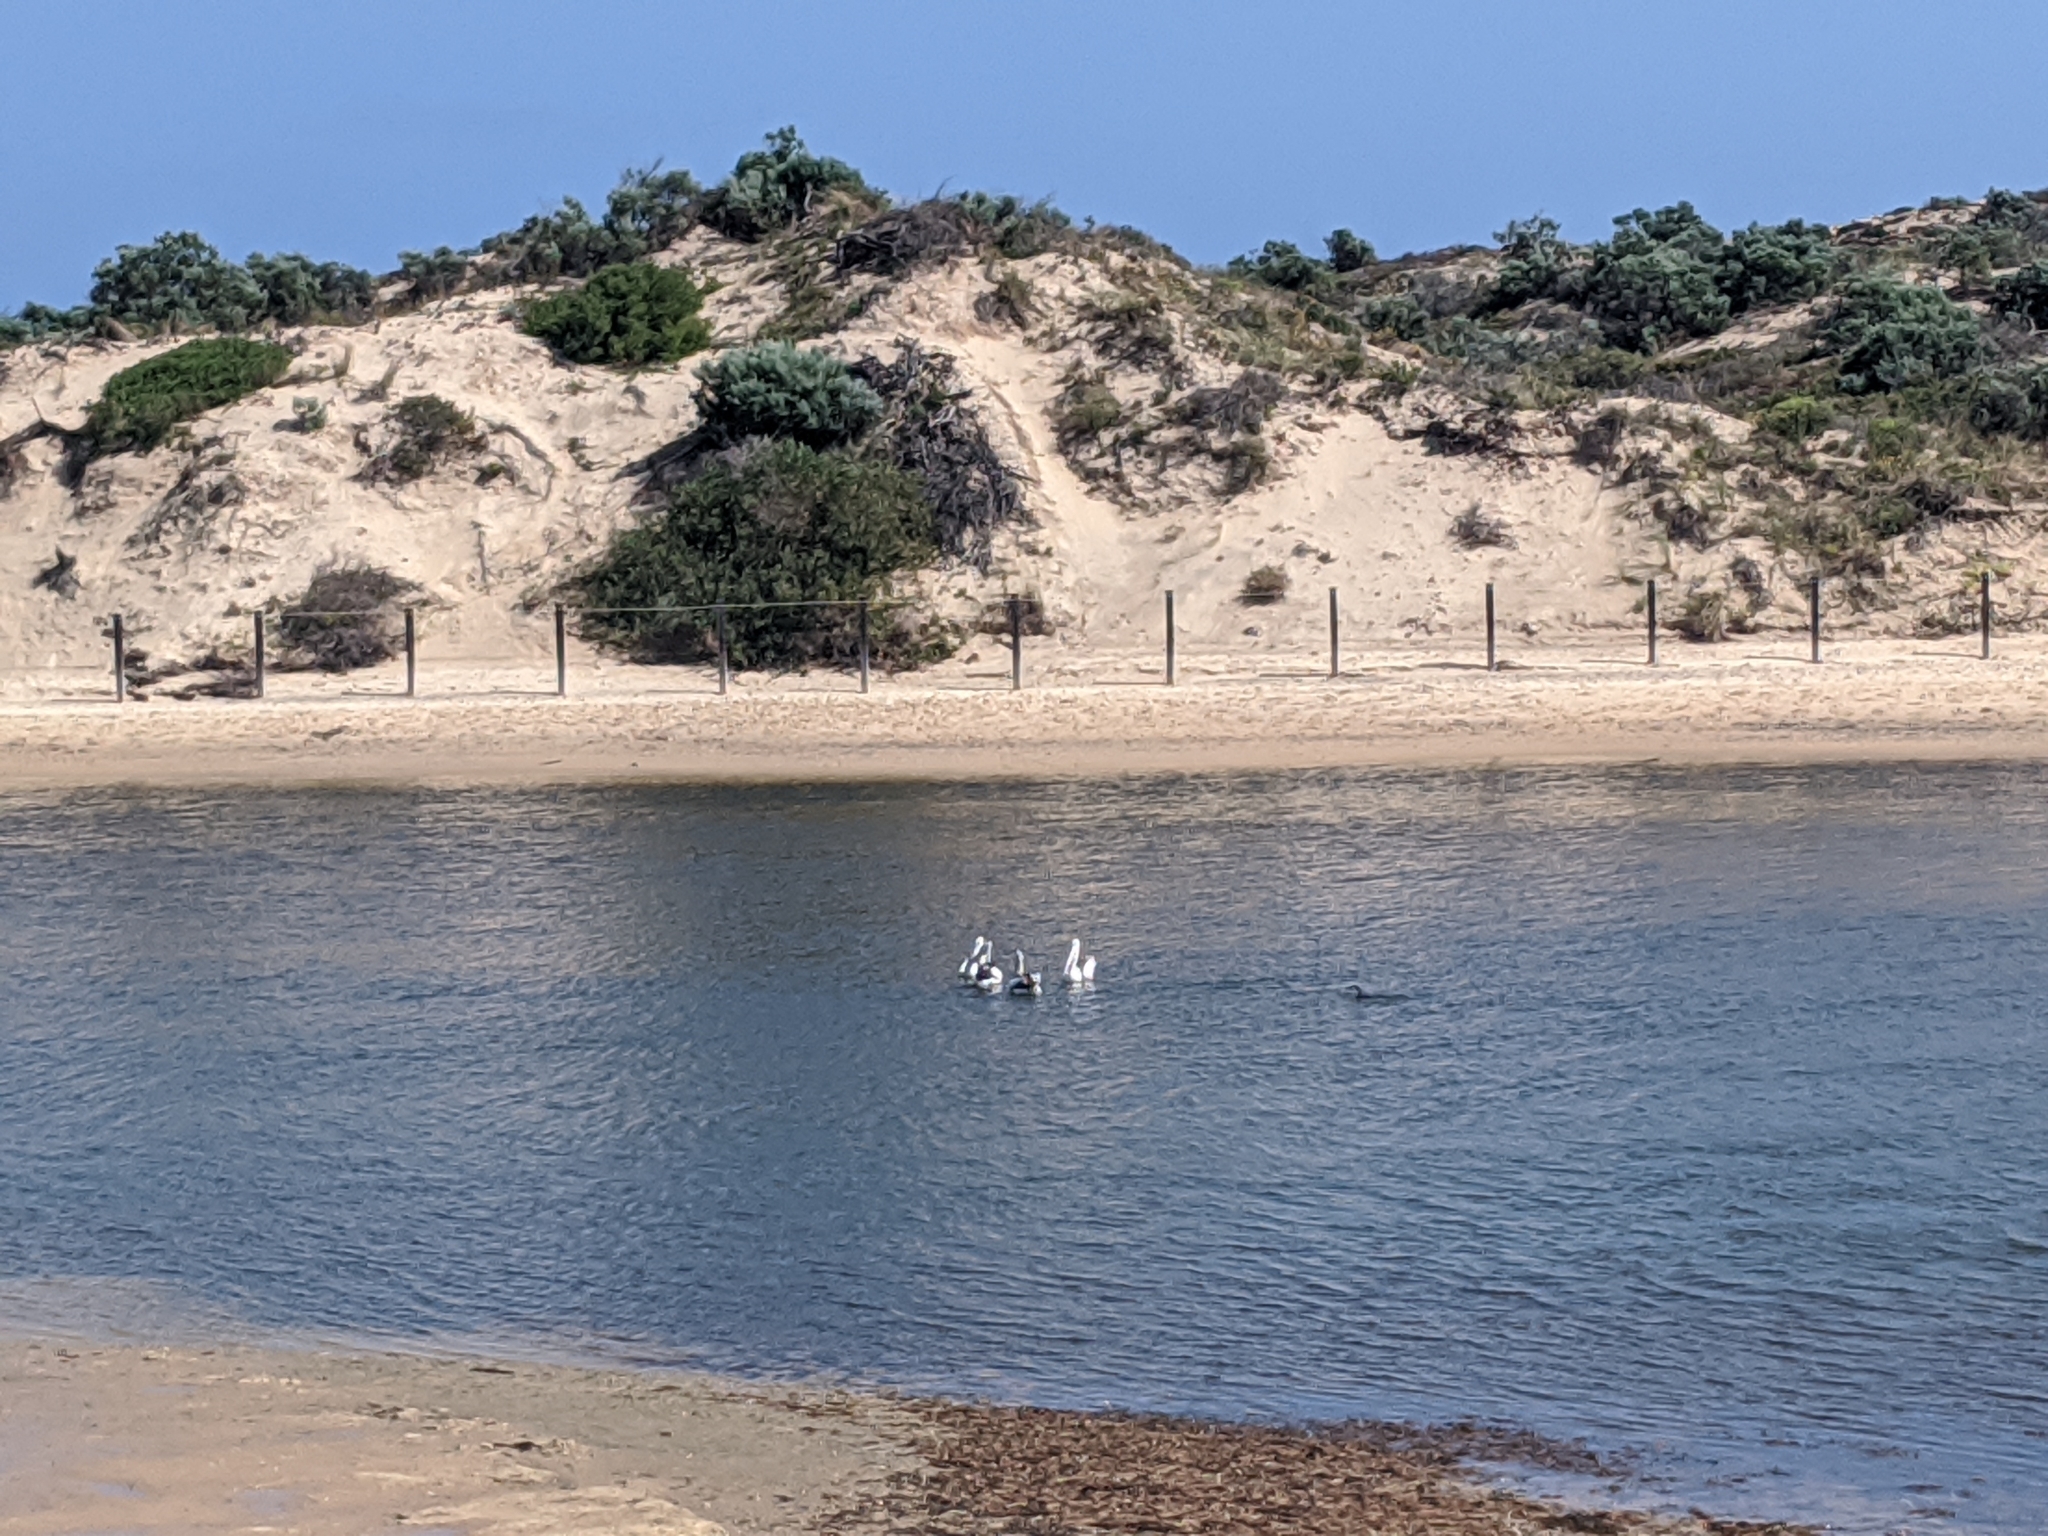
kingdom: Animalia
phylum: Chordata
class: Aves
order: Pelecaniformes
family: Pelecanidae
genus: Pelecanus
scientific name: Pelecanus conspicillatus
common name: Australian pelican
